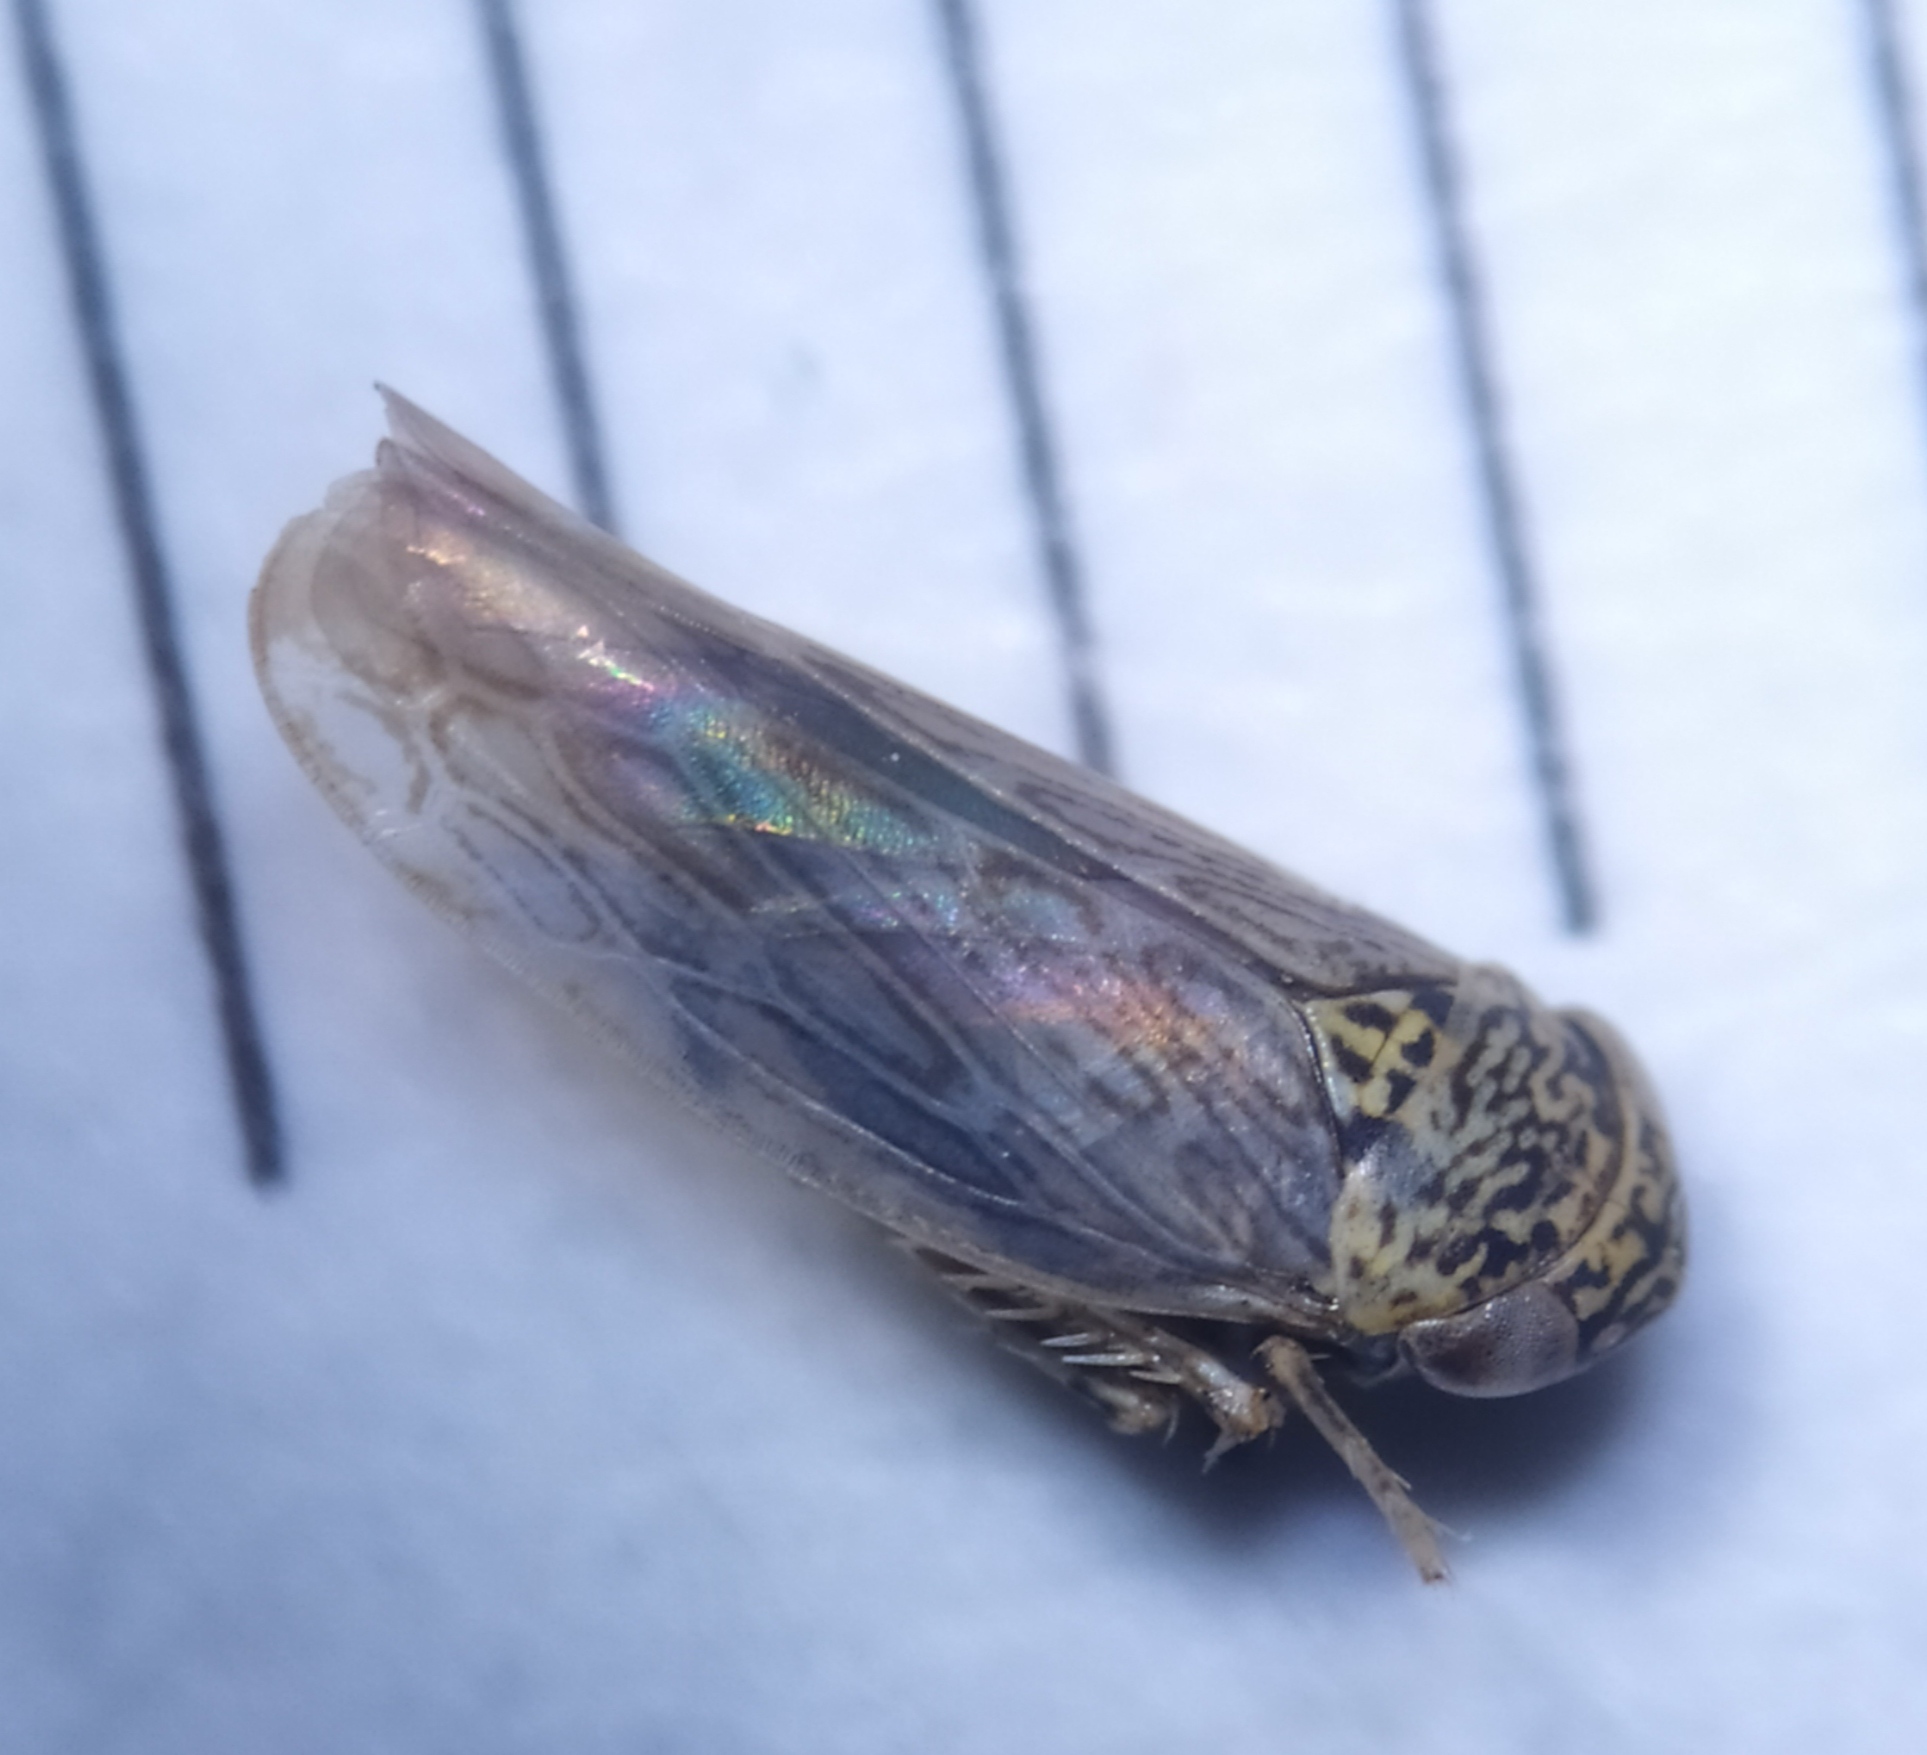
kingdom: Animalia
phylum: Arthropoda
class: Insecta
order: Hemiptera
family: Cicadellidae
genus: Ophiola
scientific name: Ophiola decumana
